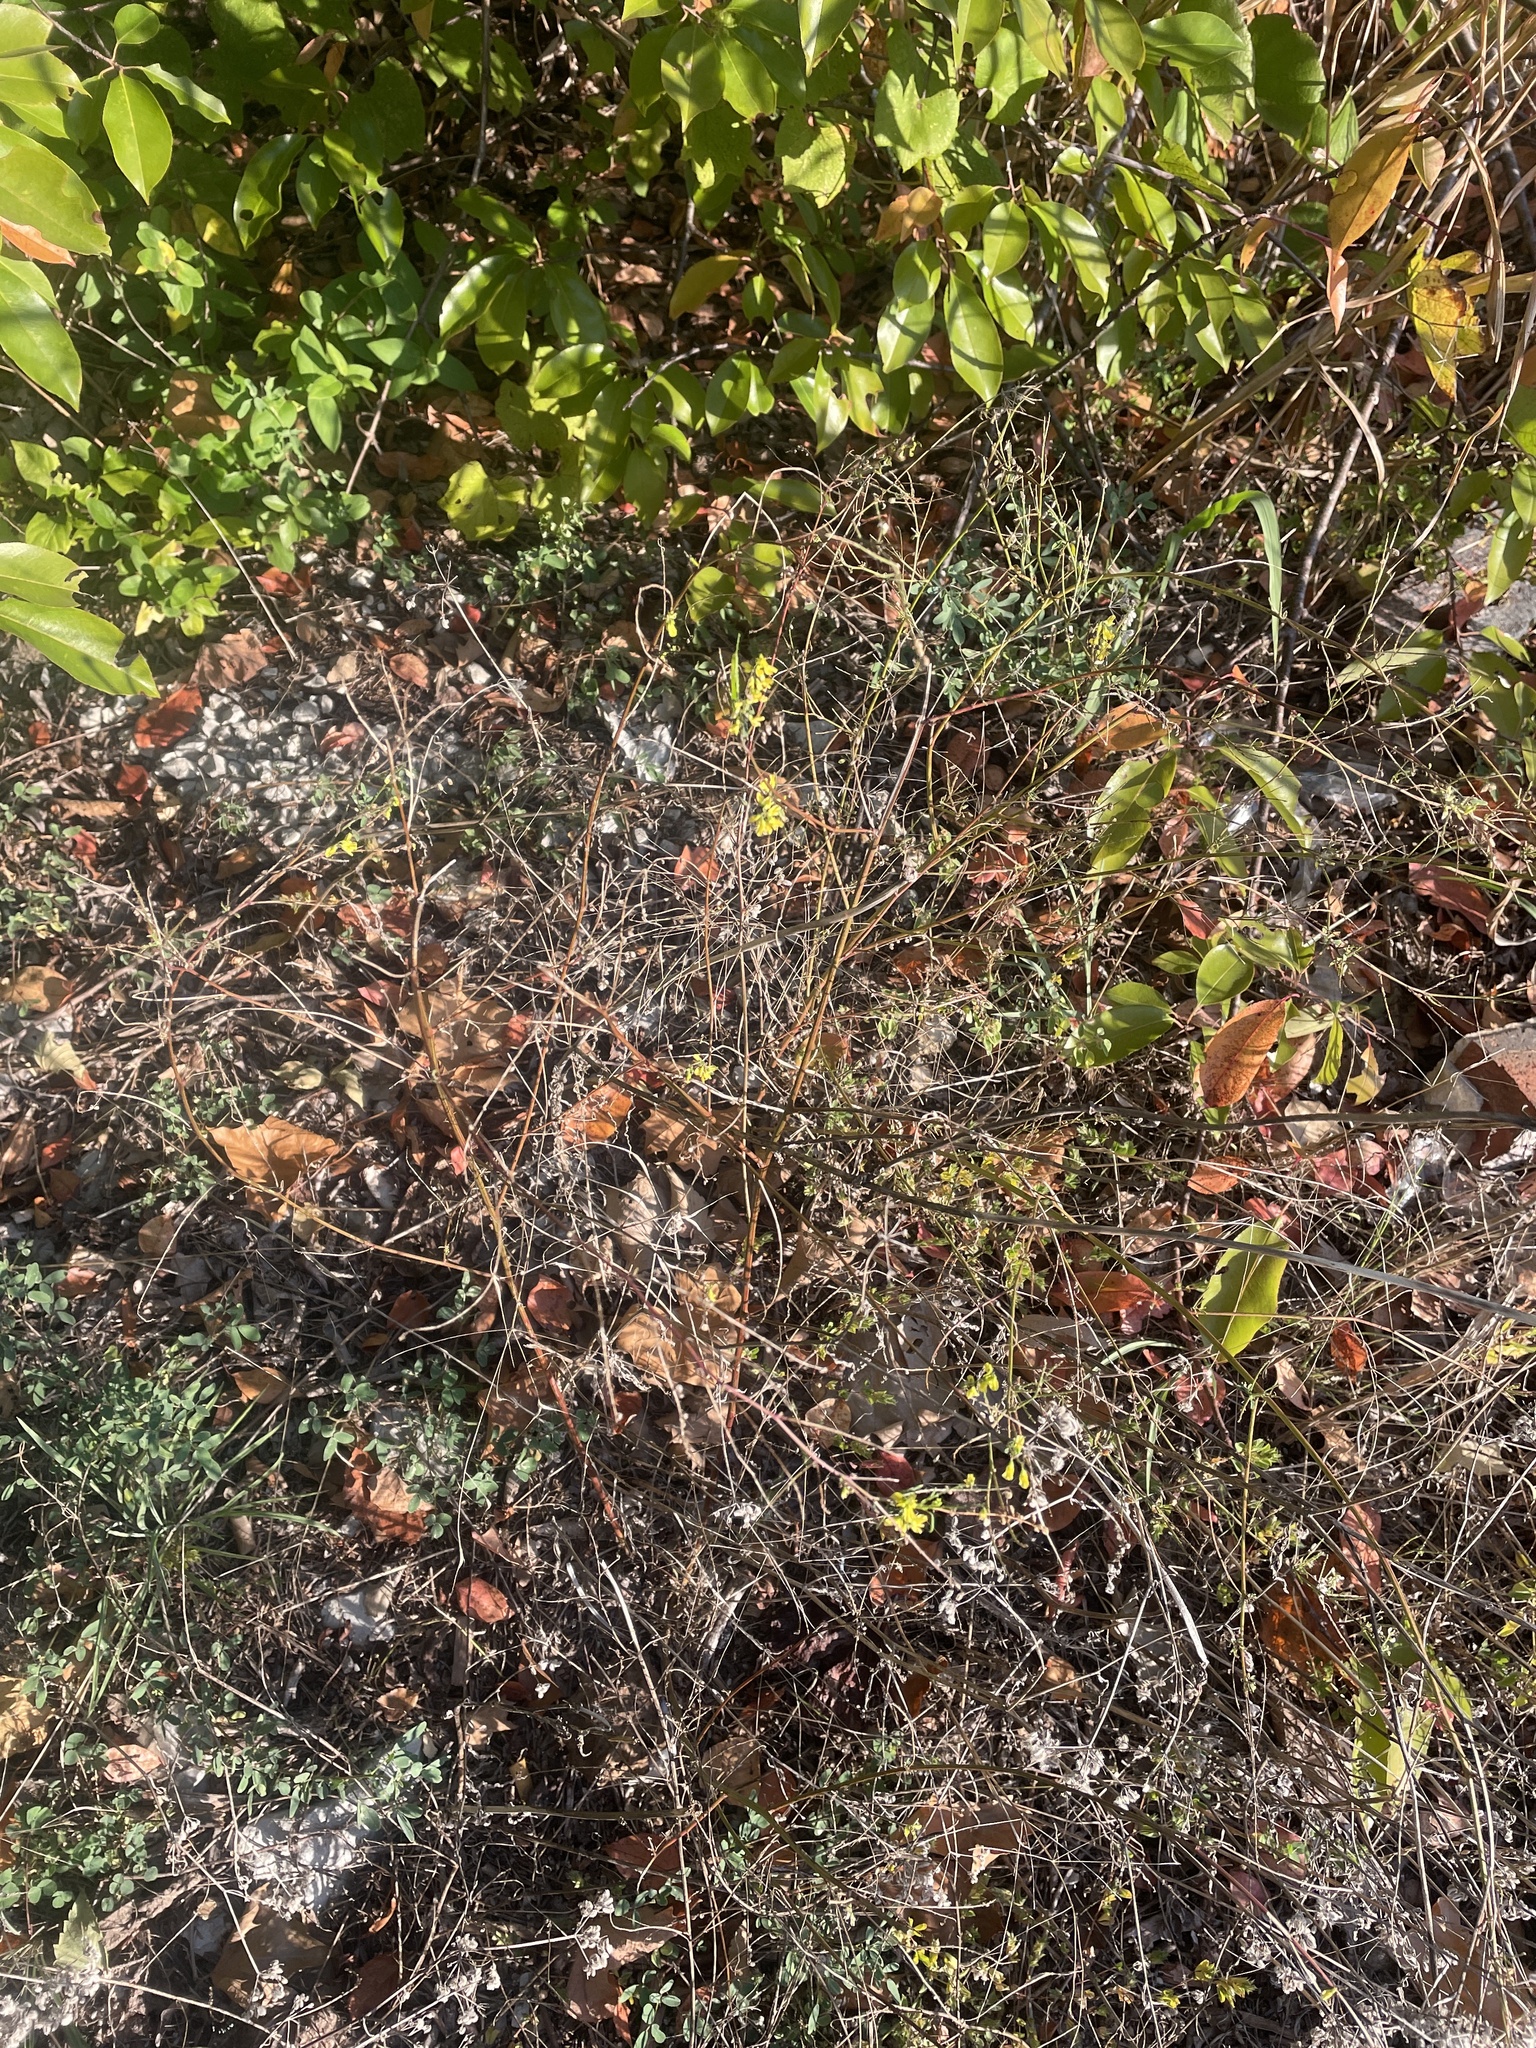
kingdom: Plantae
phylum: Tracheophyta
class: Magnoliopsida
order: Fabales
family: Fabaceae
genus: Melilotus
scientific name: Melilotus officinalis
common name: Sweetclover
